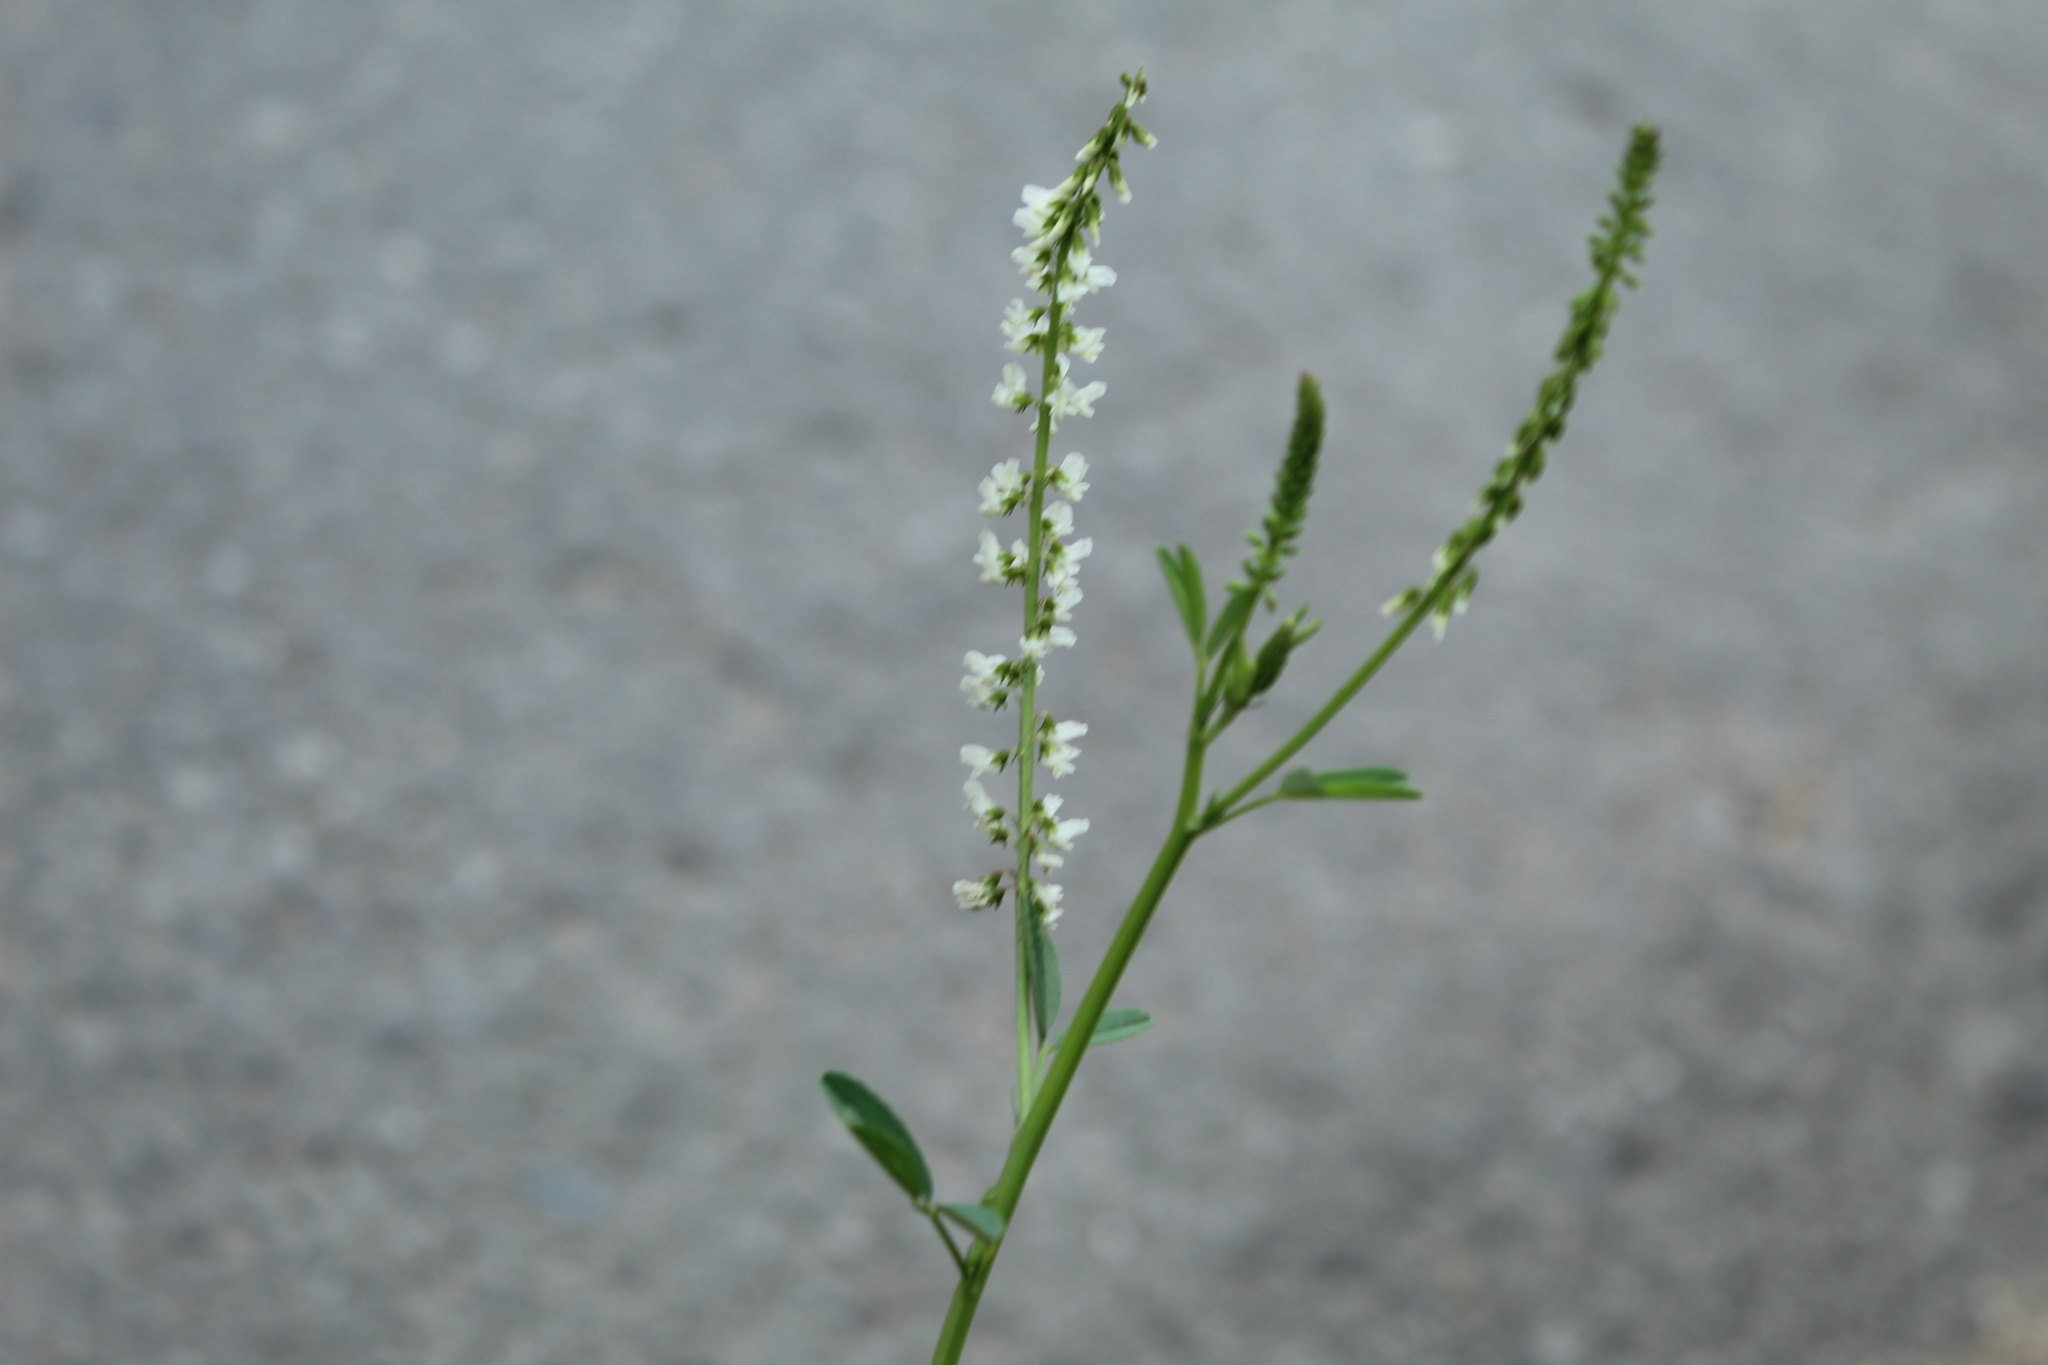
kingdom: Plantae
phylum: Tracheophyta
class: Magnoliopsida
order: Fabales
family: Fabaceae
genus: Melilotus
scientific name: Melilotus albus
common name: White melilot
